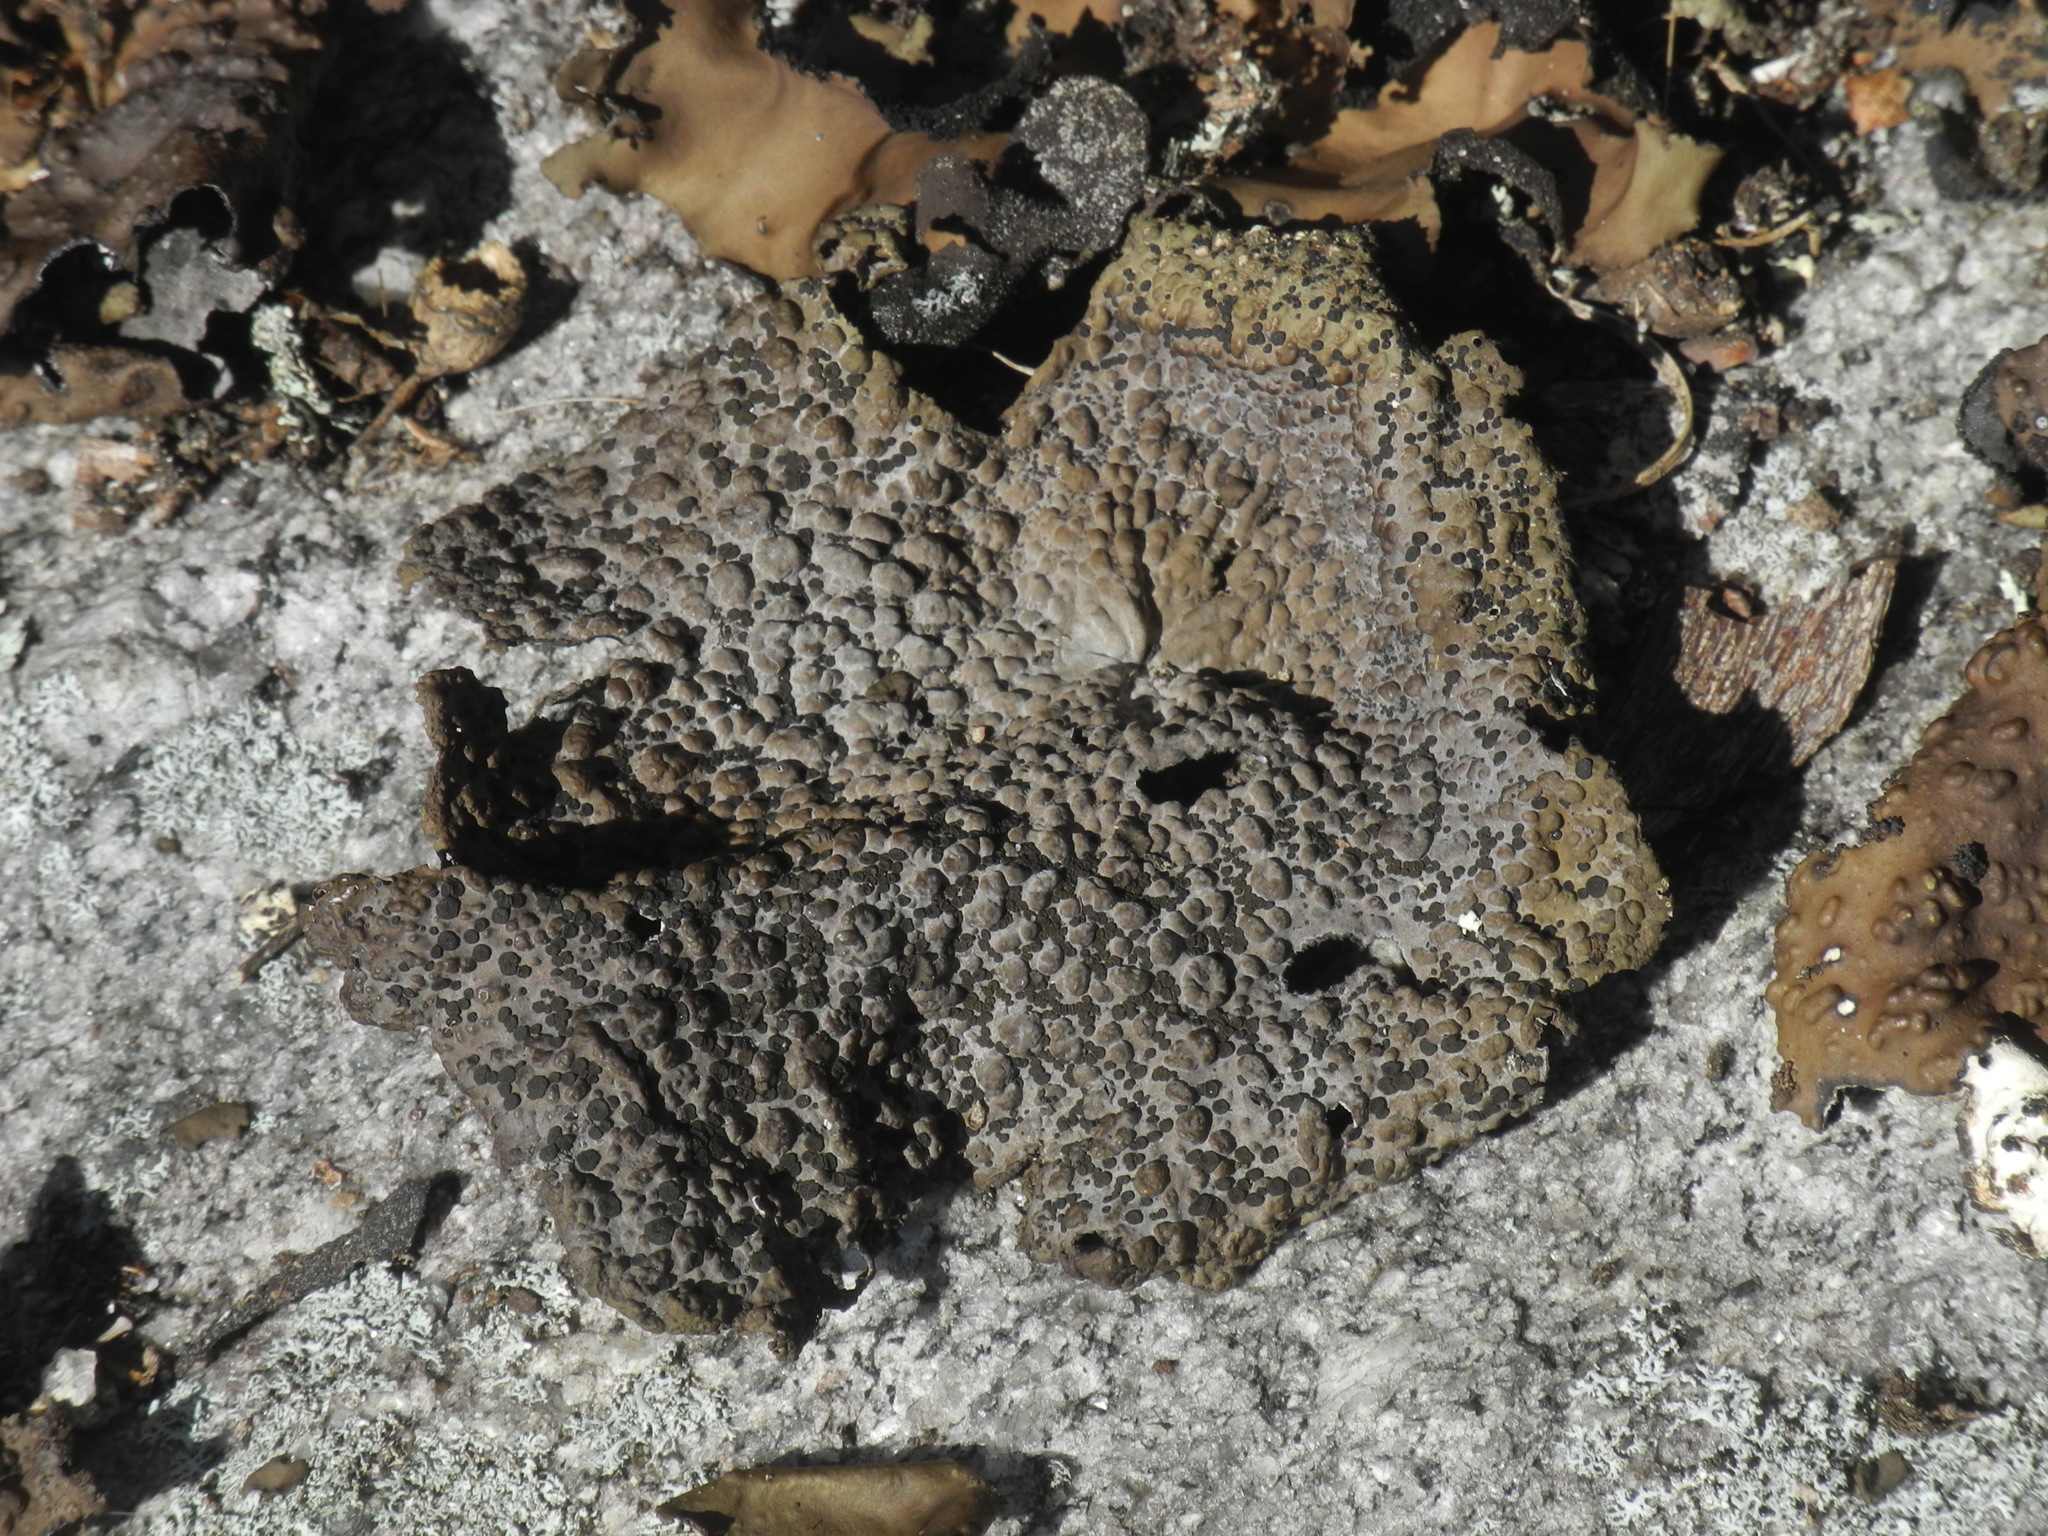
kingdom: Fungi
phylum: Ascomycota
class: Lecanoromycetes
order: Umbilicariales
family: Umbilicariaceae
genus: Lasallia
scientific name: Lasallia papulosa
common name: Common toadskin lichen
